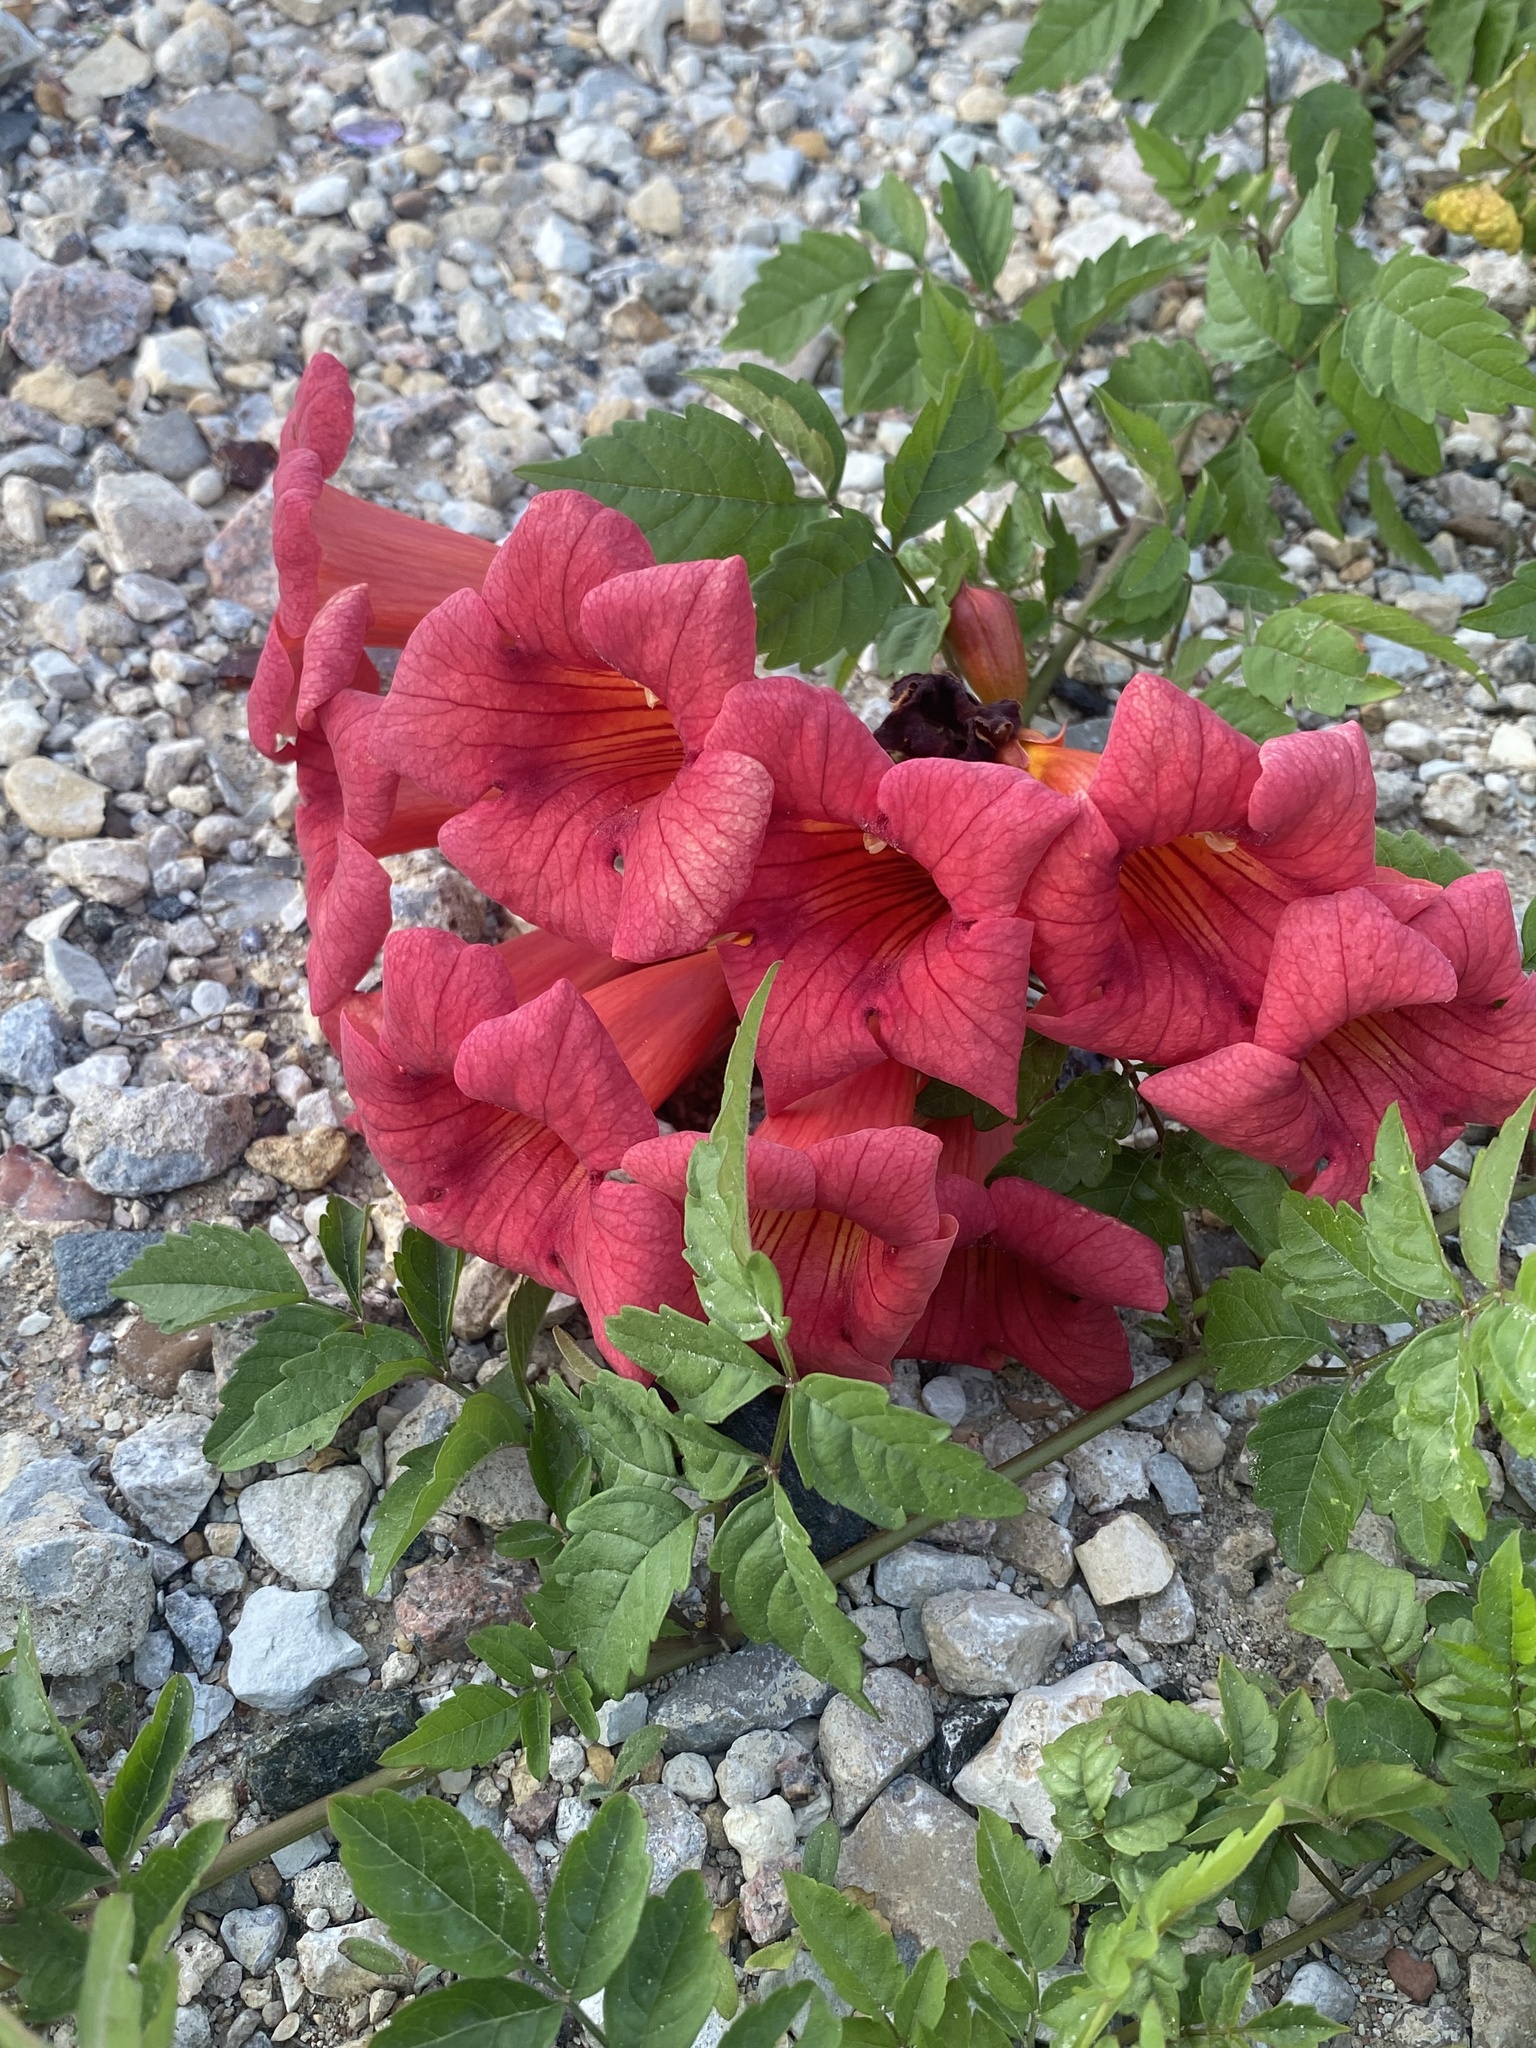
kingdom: Plantae
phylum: Tracheophyta
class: Magnoliopsida
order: Lamiales
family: Bignoniaceae
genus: Campsis
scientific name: Campsis radicans
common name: Trumpet-creeper
